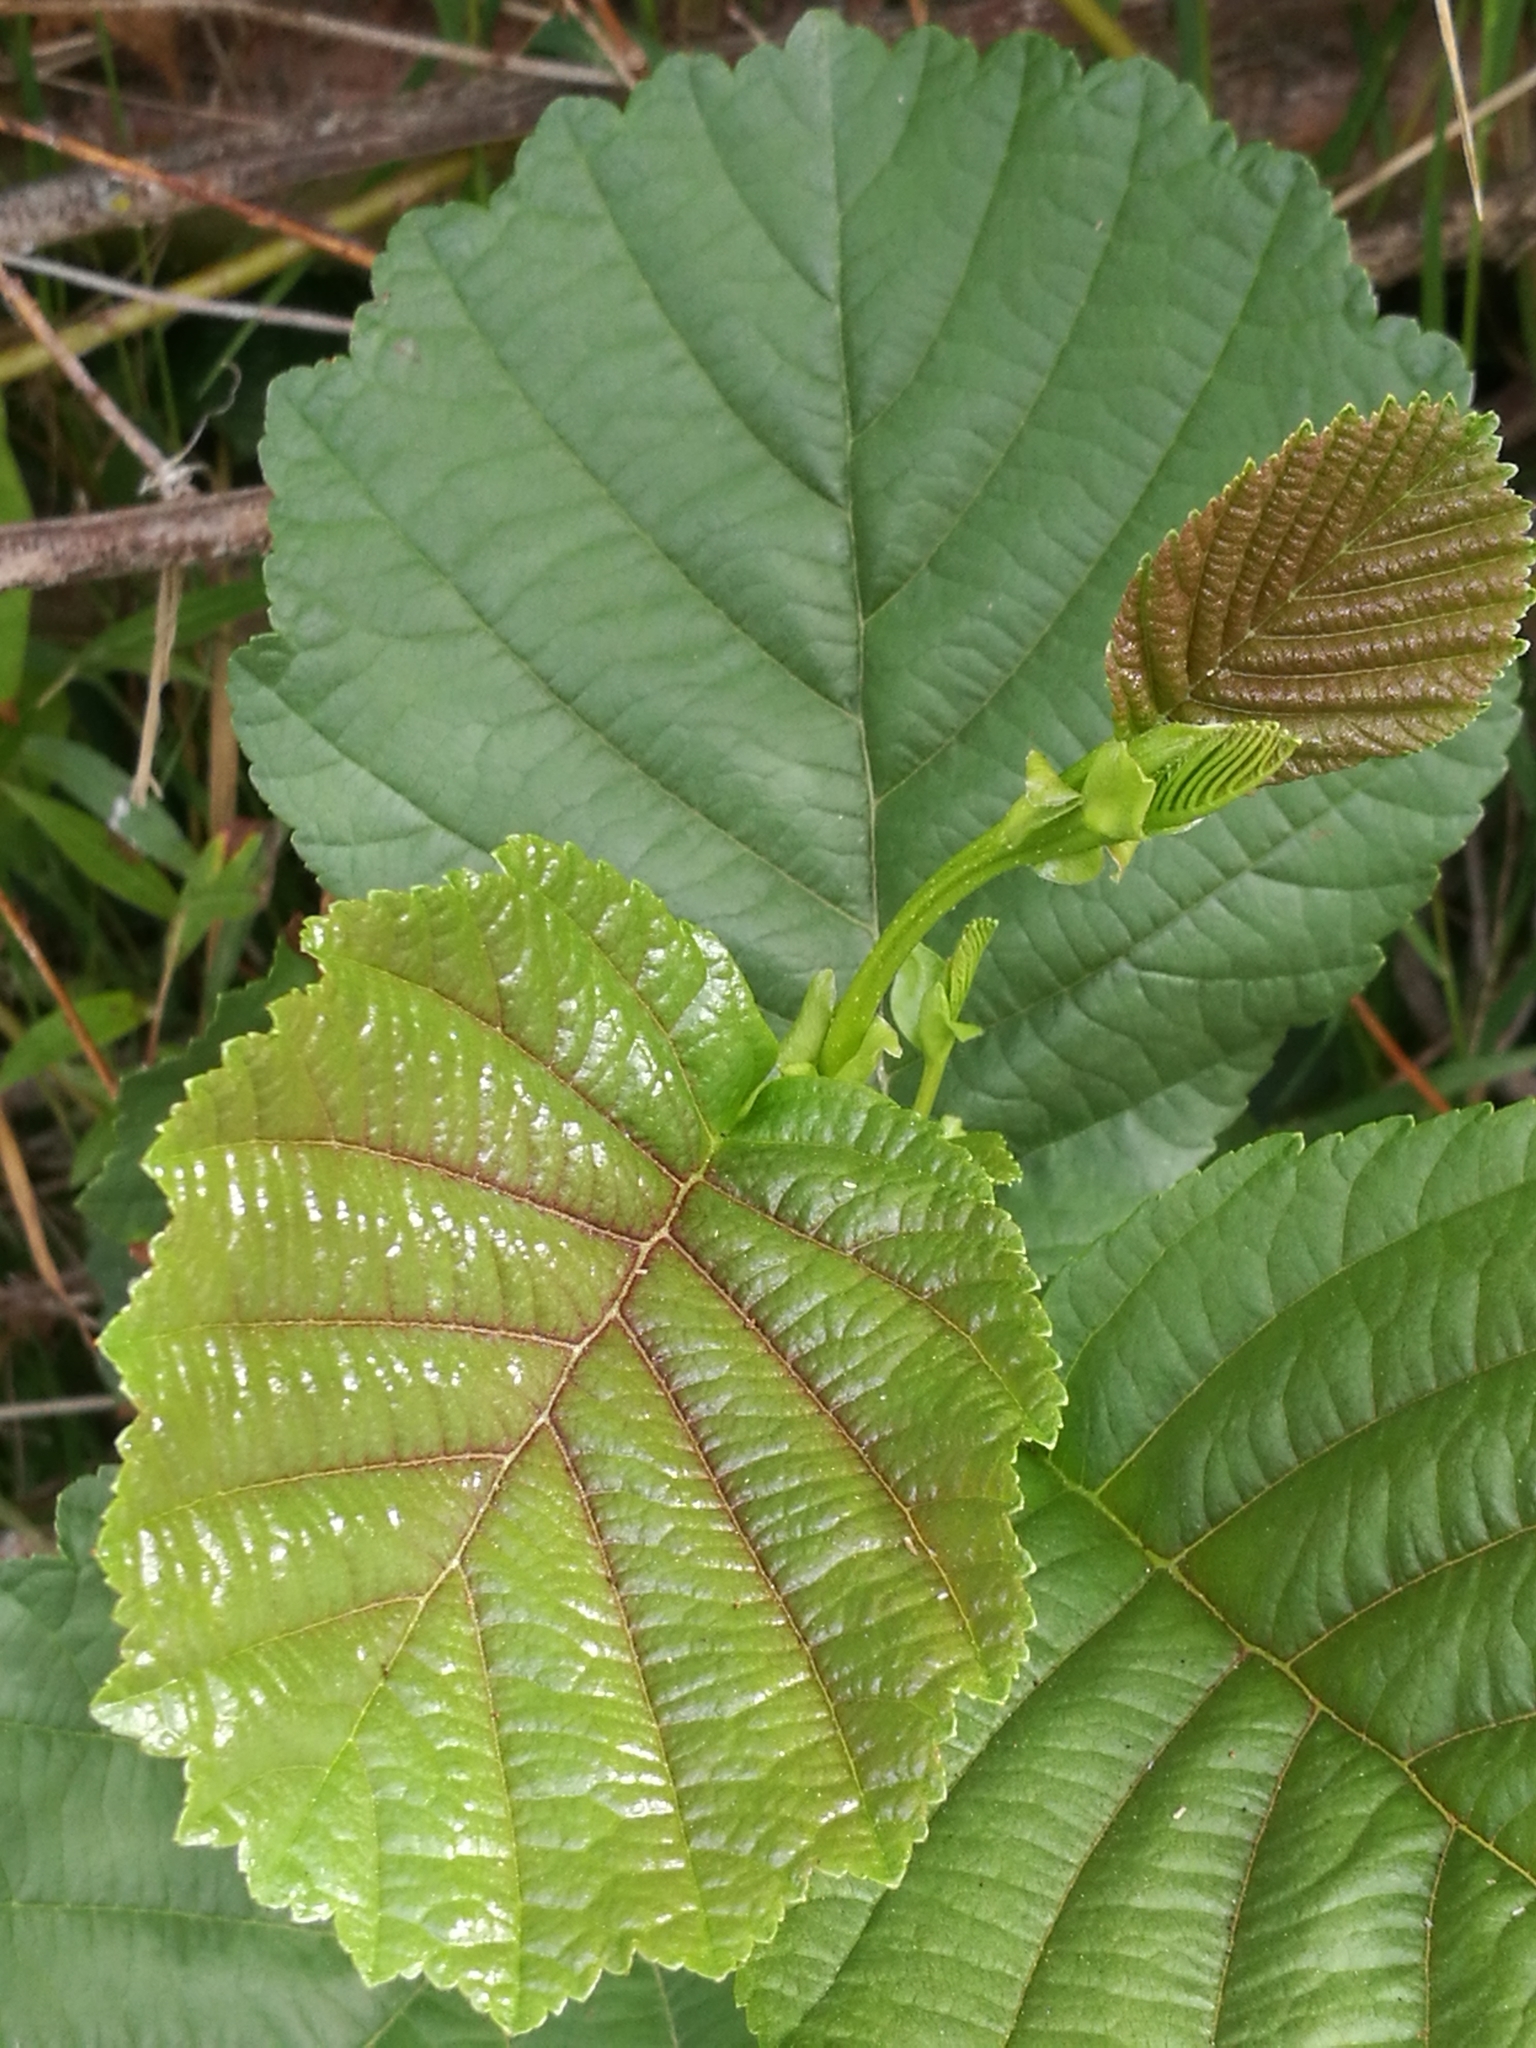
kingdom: Plantae
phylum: Tracheophyta
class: Magnoliopsida
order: Fagales
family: Betulaceae
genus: Alnus
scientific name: Alnus glutinosa
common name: Black alder
